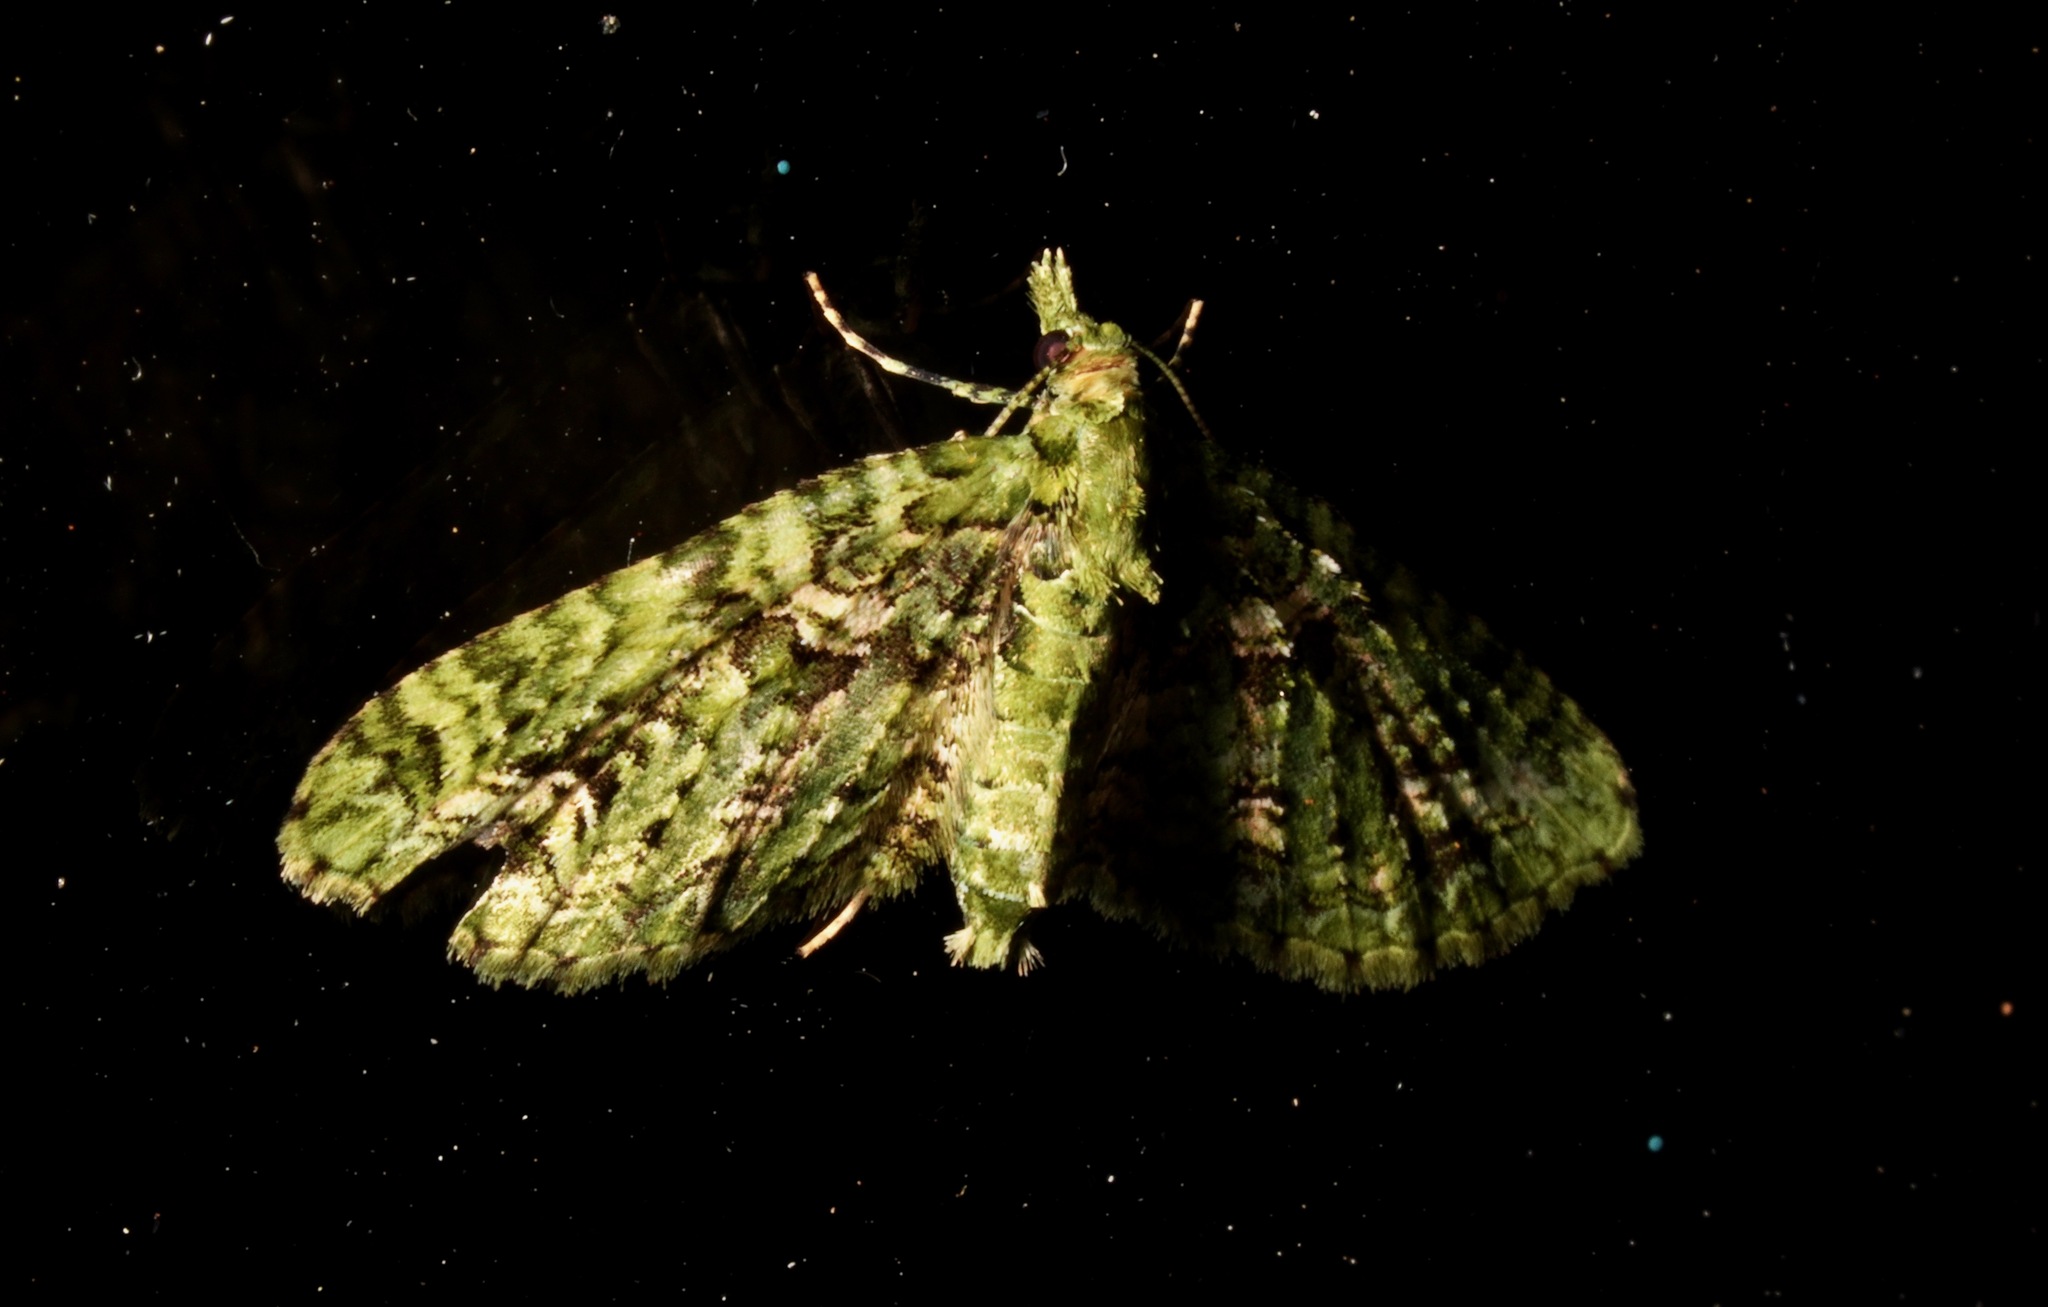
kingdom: Animalia
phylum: Arthropoda
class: Insecta
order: Lepidoptera
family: Geometridae
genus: Pasiphila
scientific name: Pasiphila muscosata
